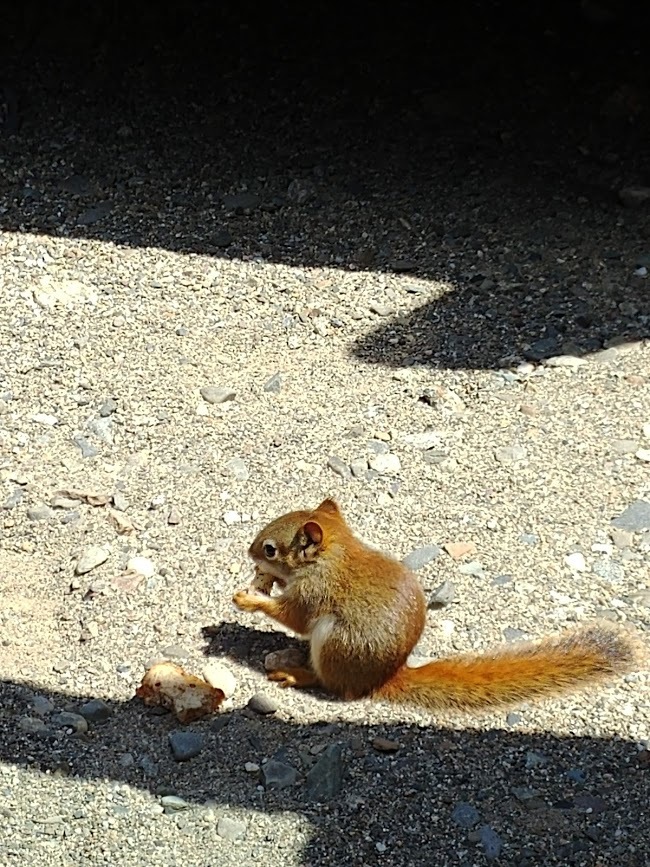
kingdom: Animalia
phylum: Chordata
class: Mammalia
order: Rodentia
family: Sciuridae
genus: Tamiasciurus
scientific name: Tamiasciurus hudsonicus
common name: Red squirrel
